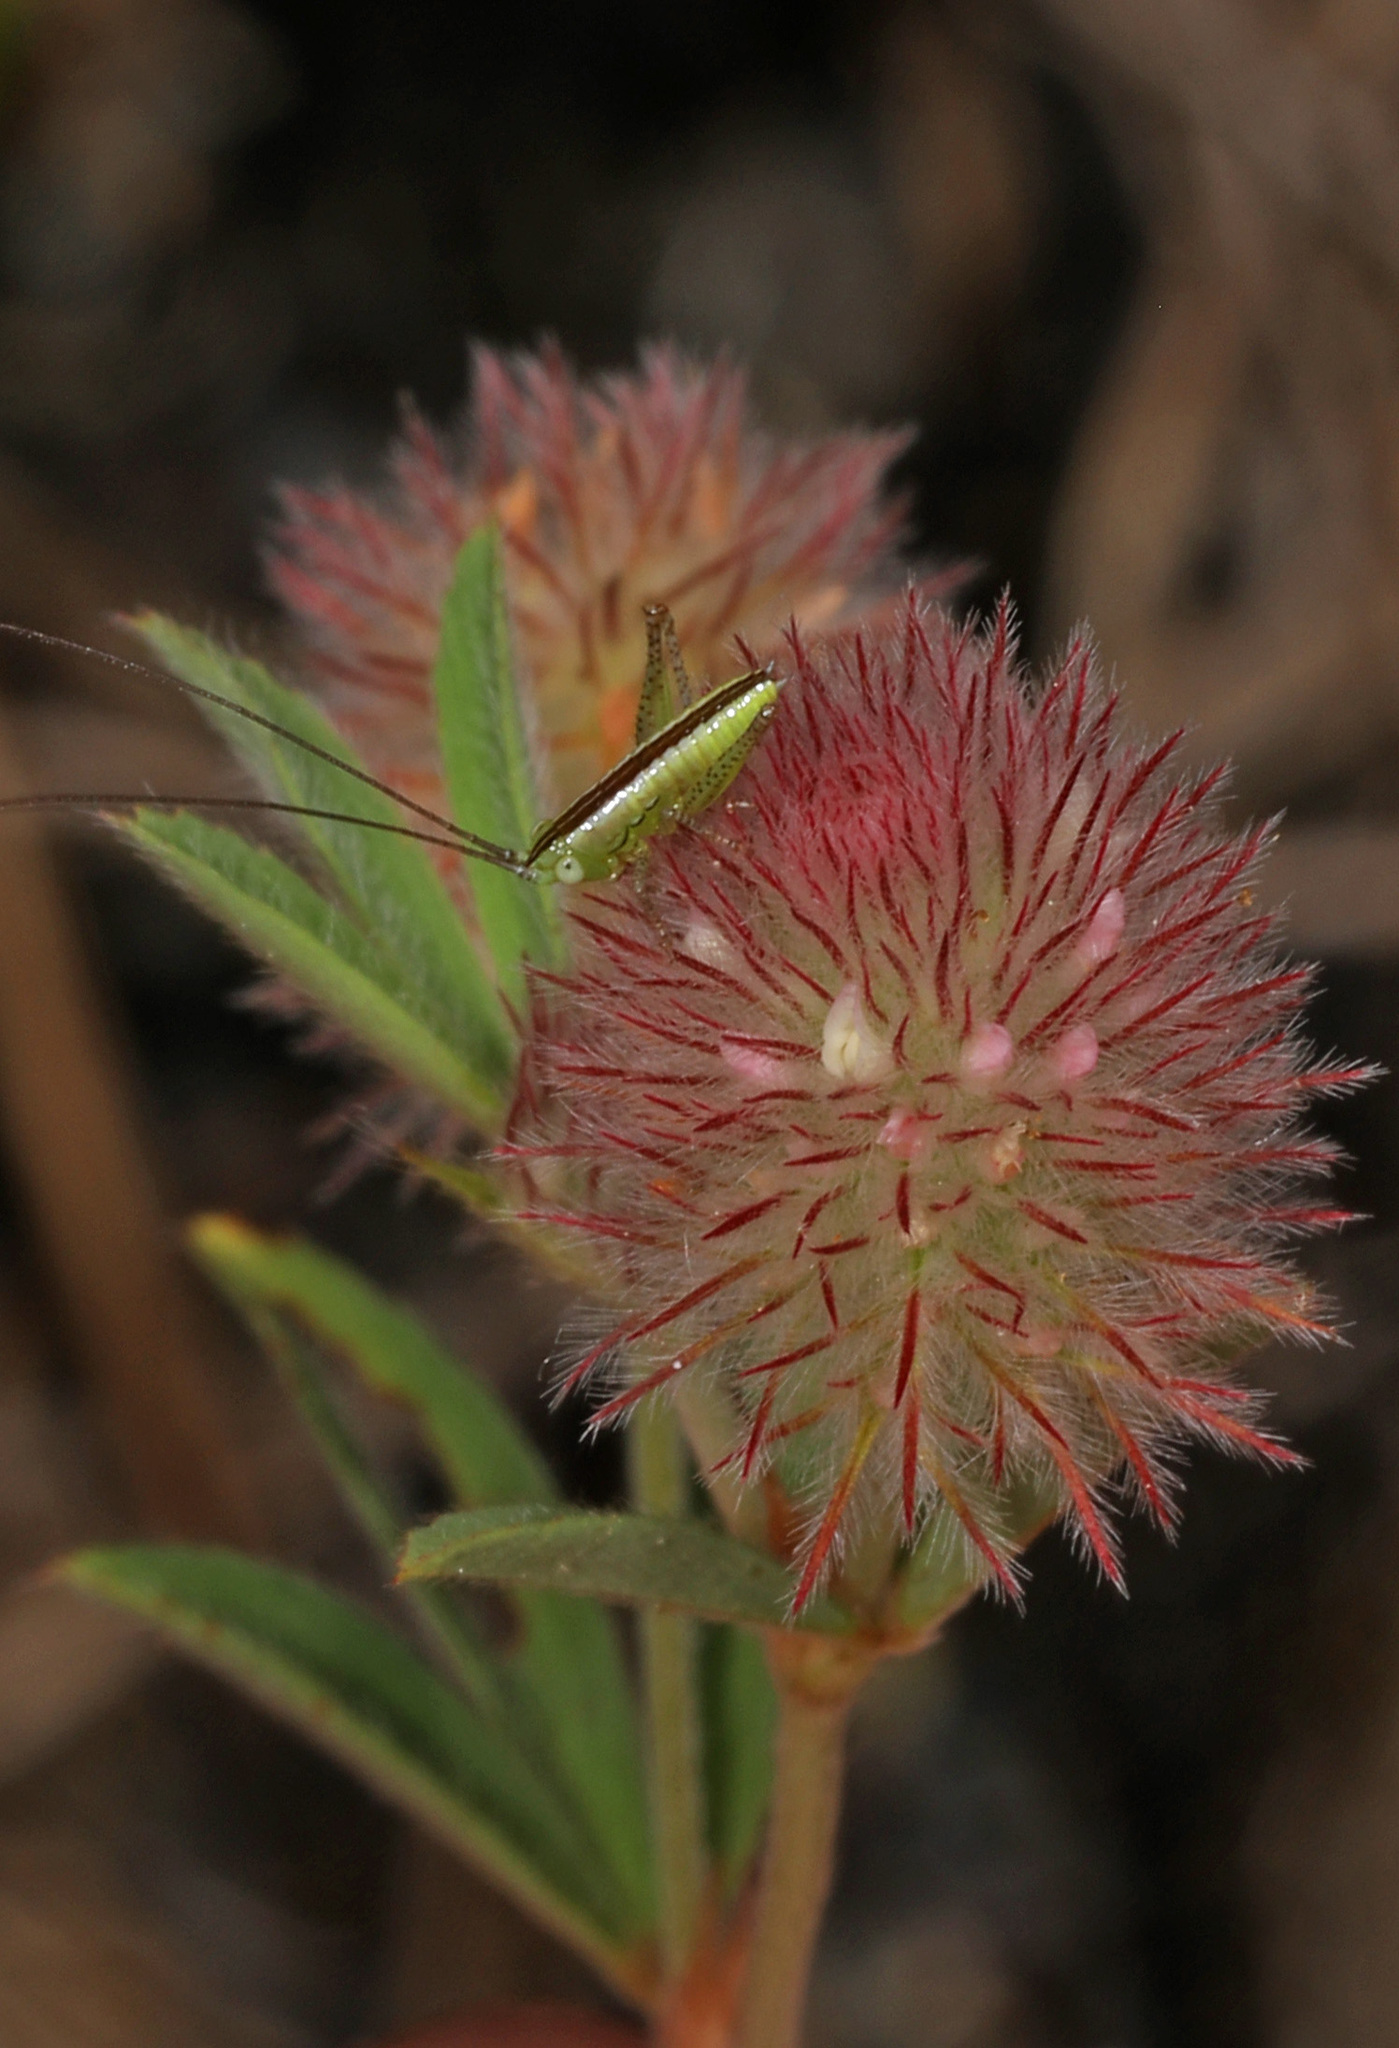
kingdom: Plantae
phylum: Tracheophyta
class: Magnoliopsida
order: Fabales
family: Fabaceae
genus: Trifolium
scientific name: Trifolium arvense
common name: Hare's-foot clover
